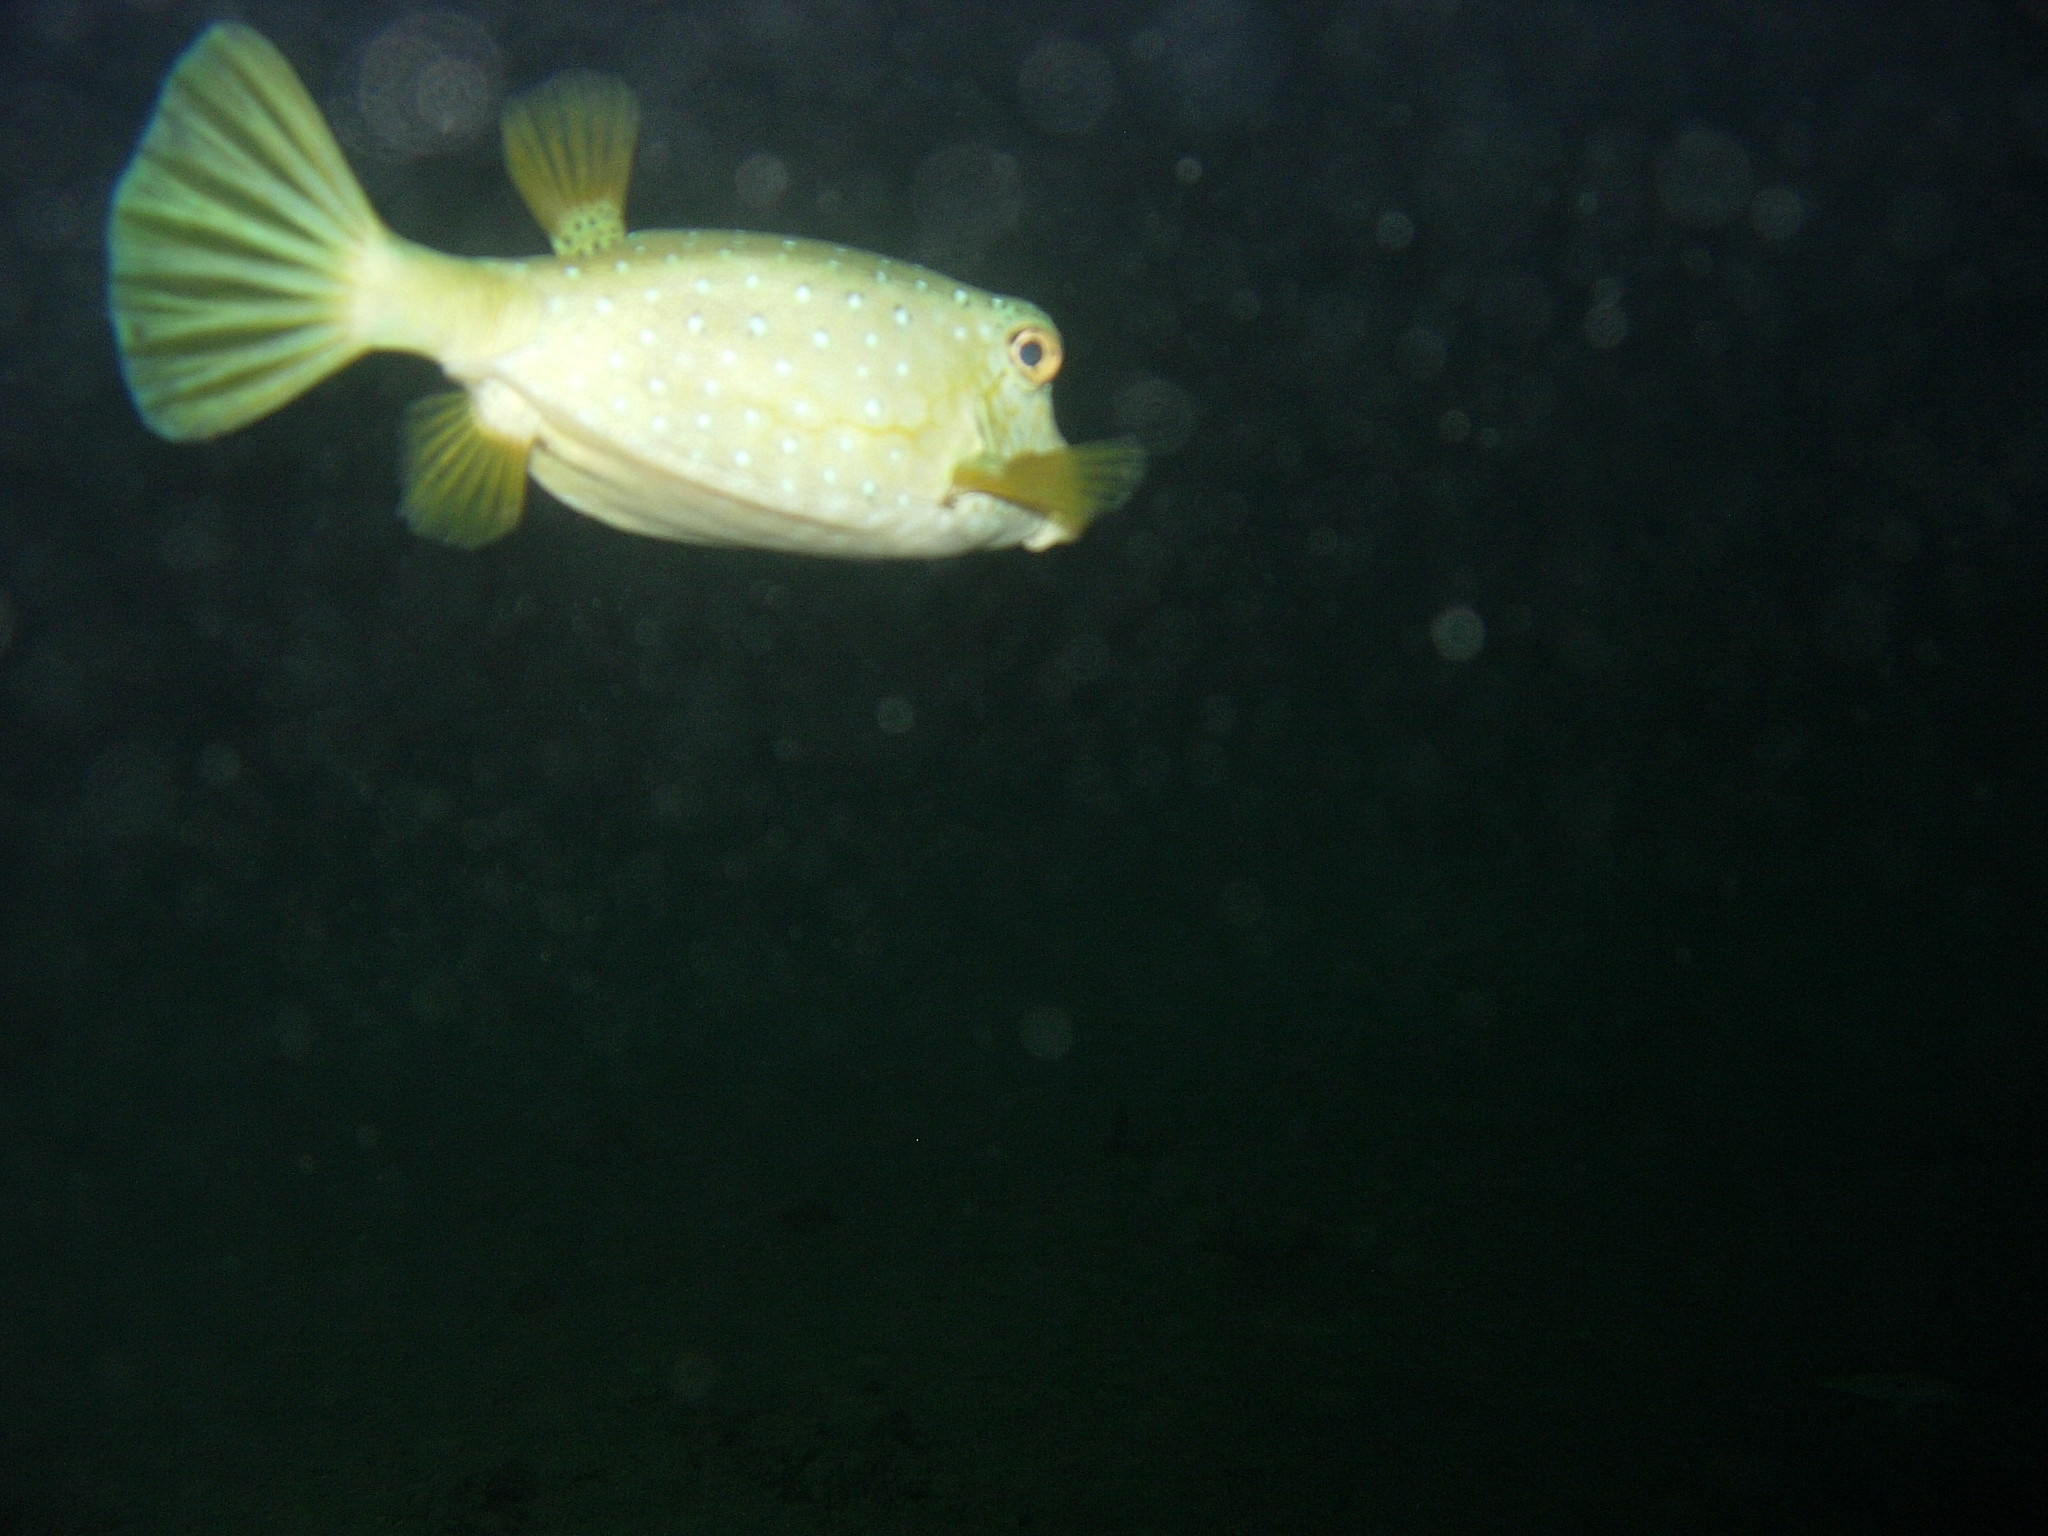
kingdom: Animalia
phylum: Chordata
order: Tetraodontiformes
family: Ostraciidae
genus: Ostracion
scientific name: Ostracion cubicus
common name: Cube trunkfish
